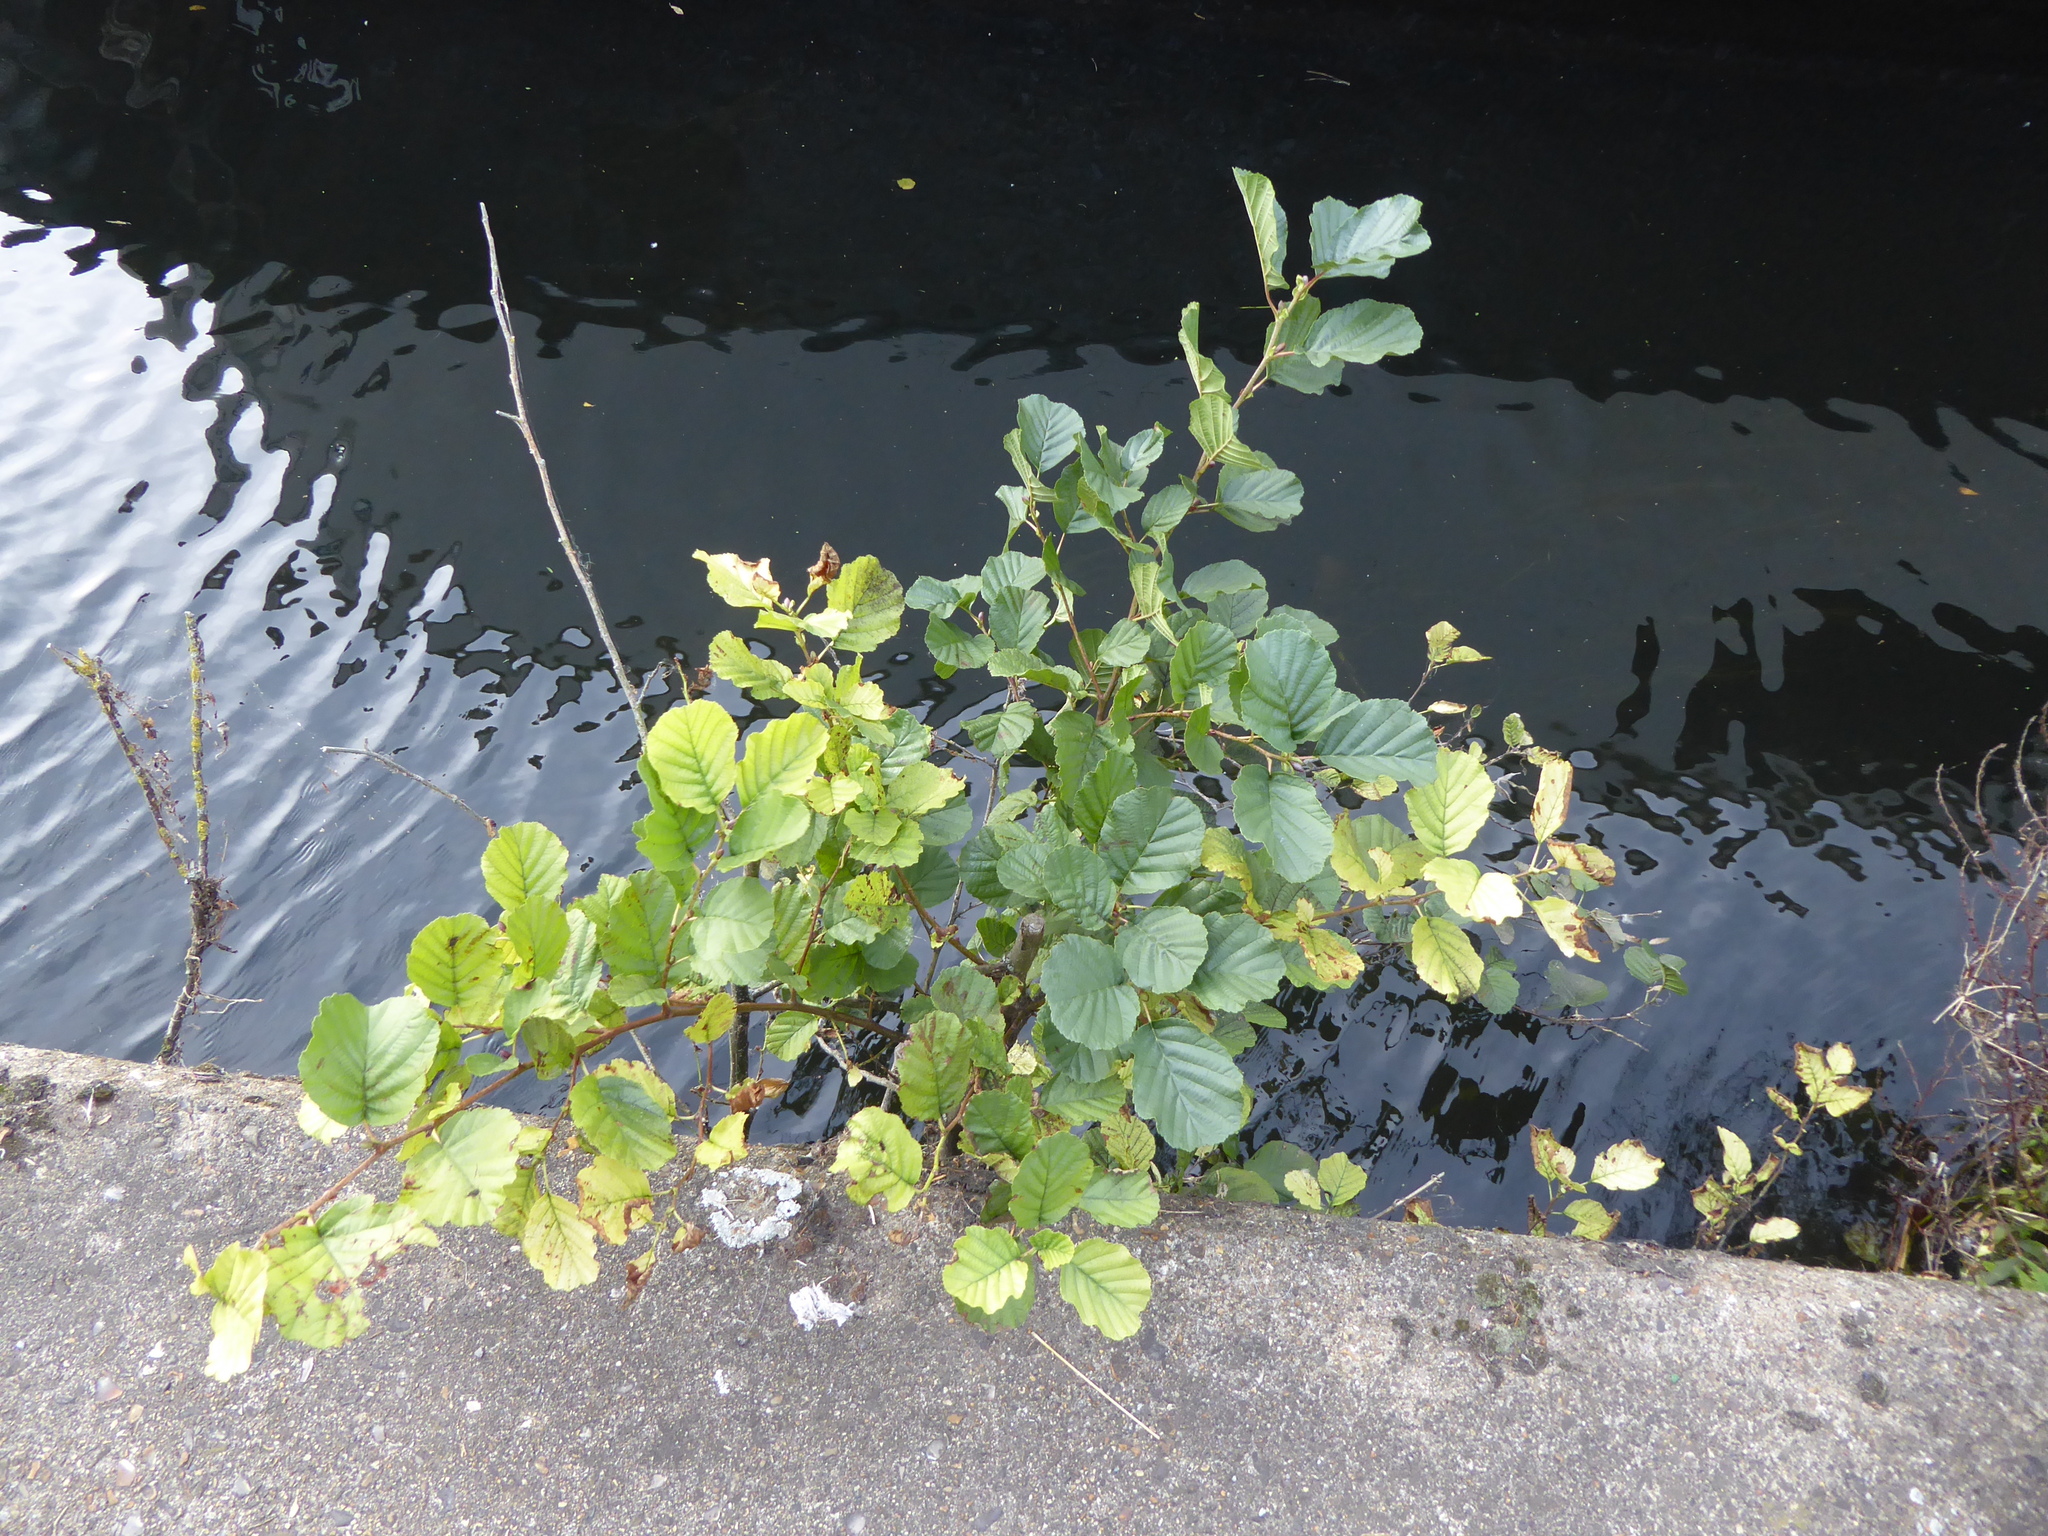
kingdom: Plantae
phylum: Tracheophyta
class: Magnoliopsida
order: Fagales
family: Betulaceae
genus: Alnus
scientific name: Alnus glutinosa
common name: Black alder
